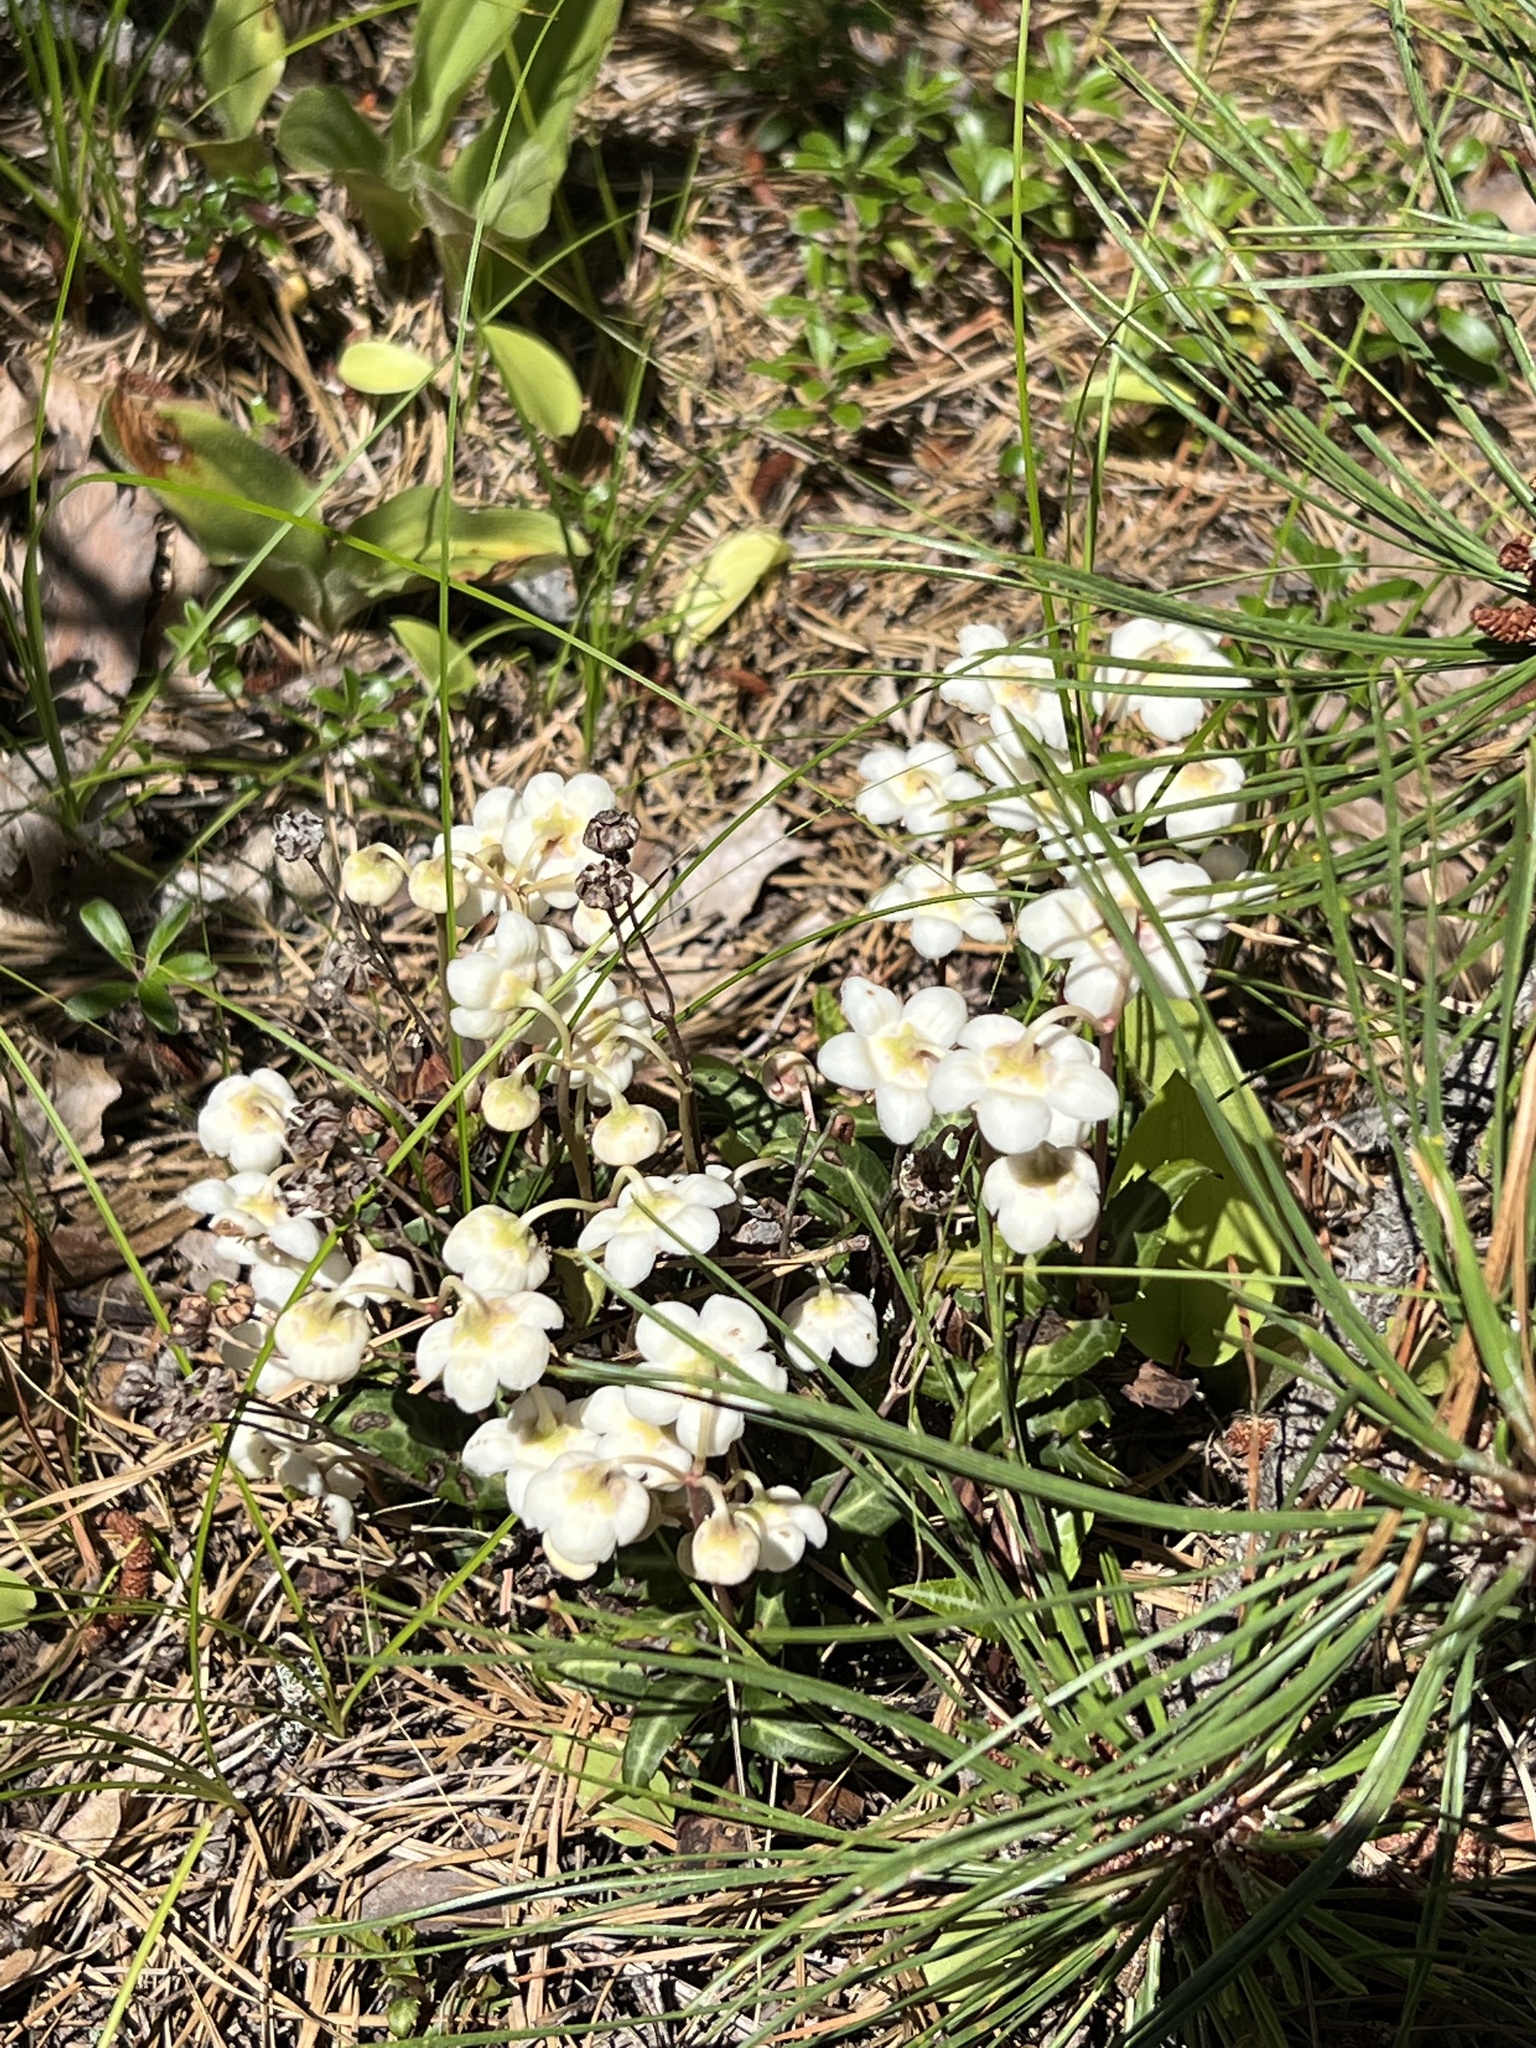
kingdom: Plantae
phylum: Tracheophyta
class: Magnoliopsida
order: Ericales
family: Ericaceae
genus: Chimaphila
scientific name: Chimaphila maculata
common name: Spotted pipsissewa
